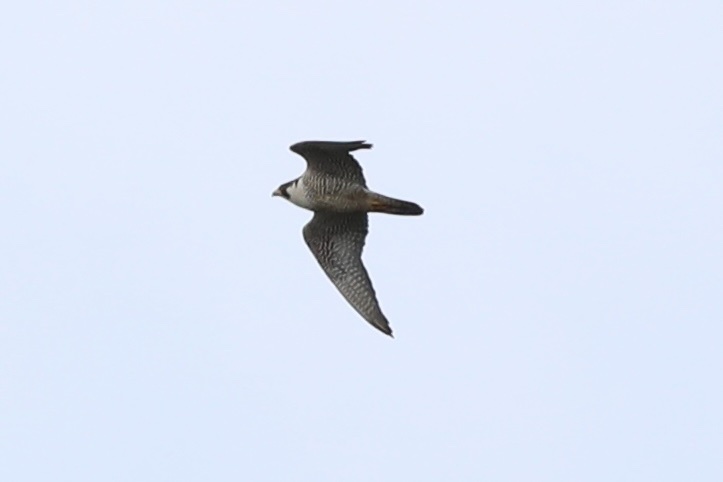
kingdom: Animalia
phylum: Chordata
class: Aves
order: Falconiformes
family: Falconidae
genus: Falco
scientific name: Falco peregrinus
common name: Peregrine falcon
